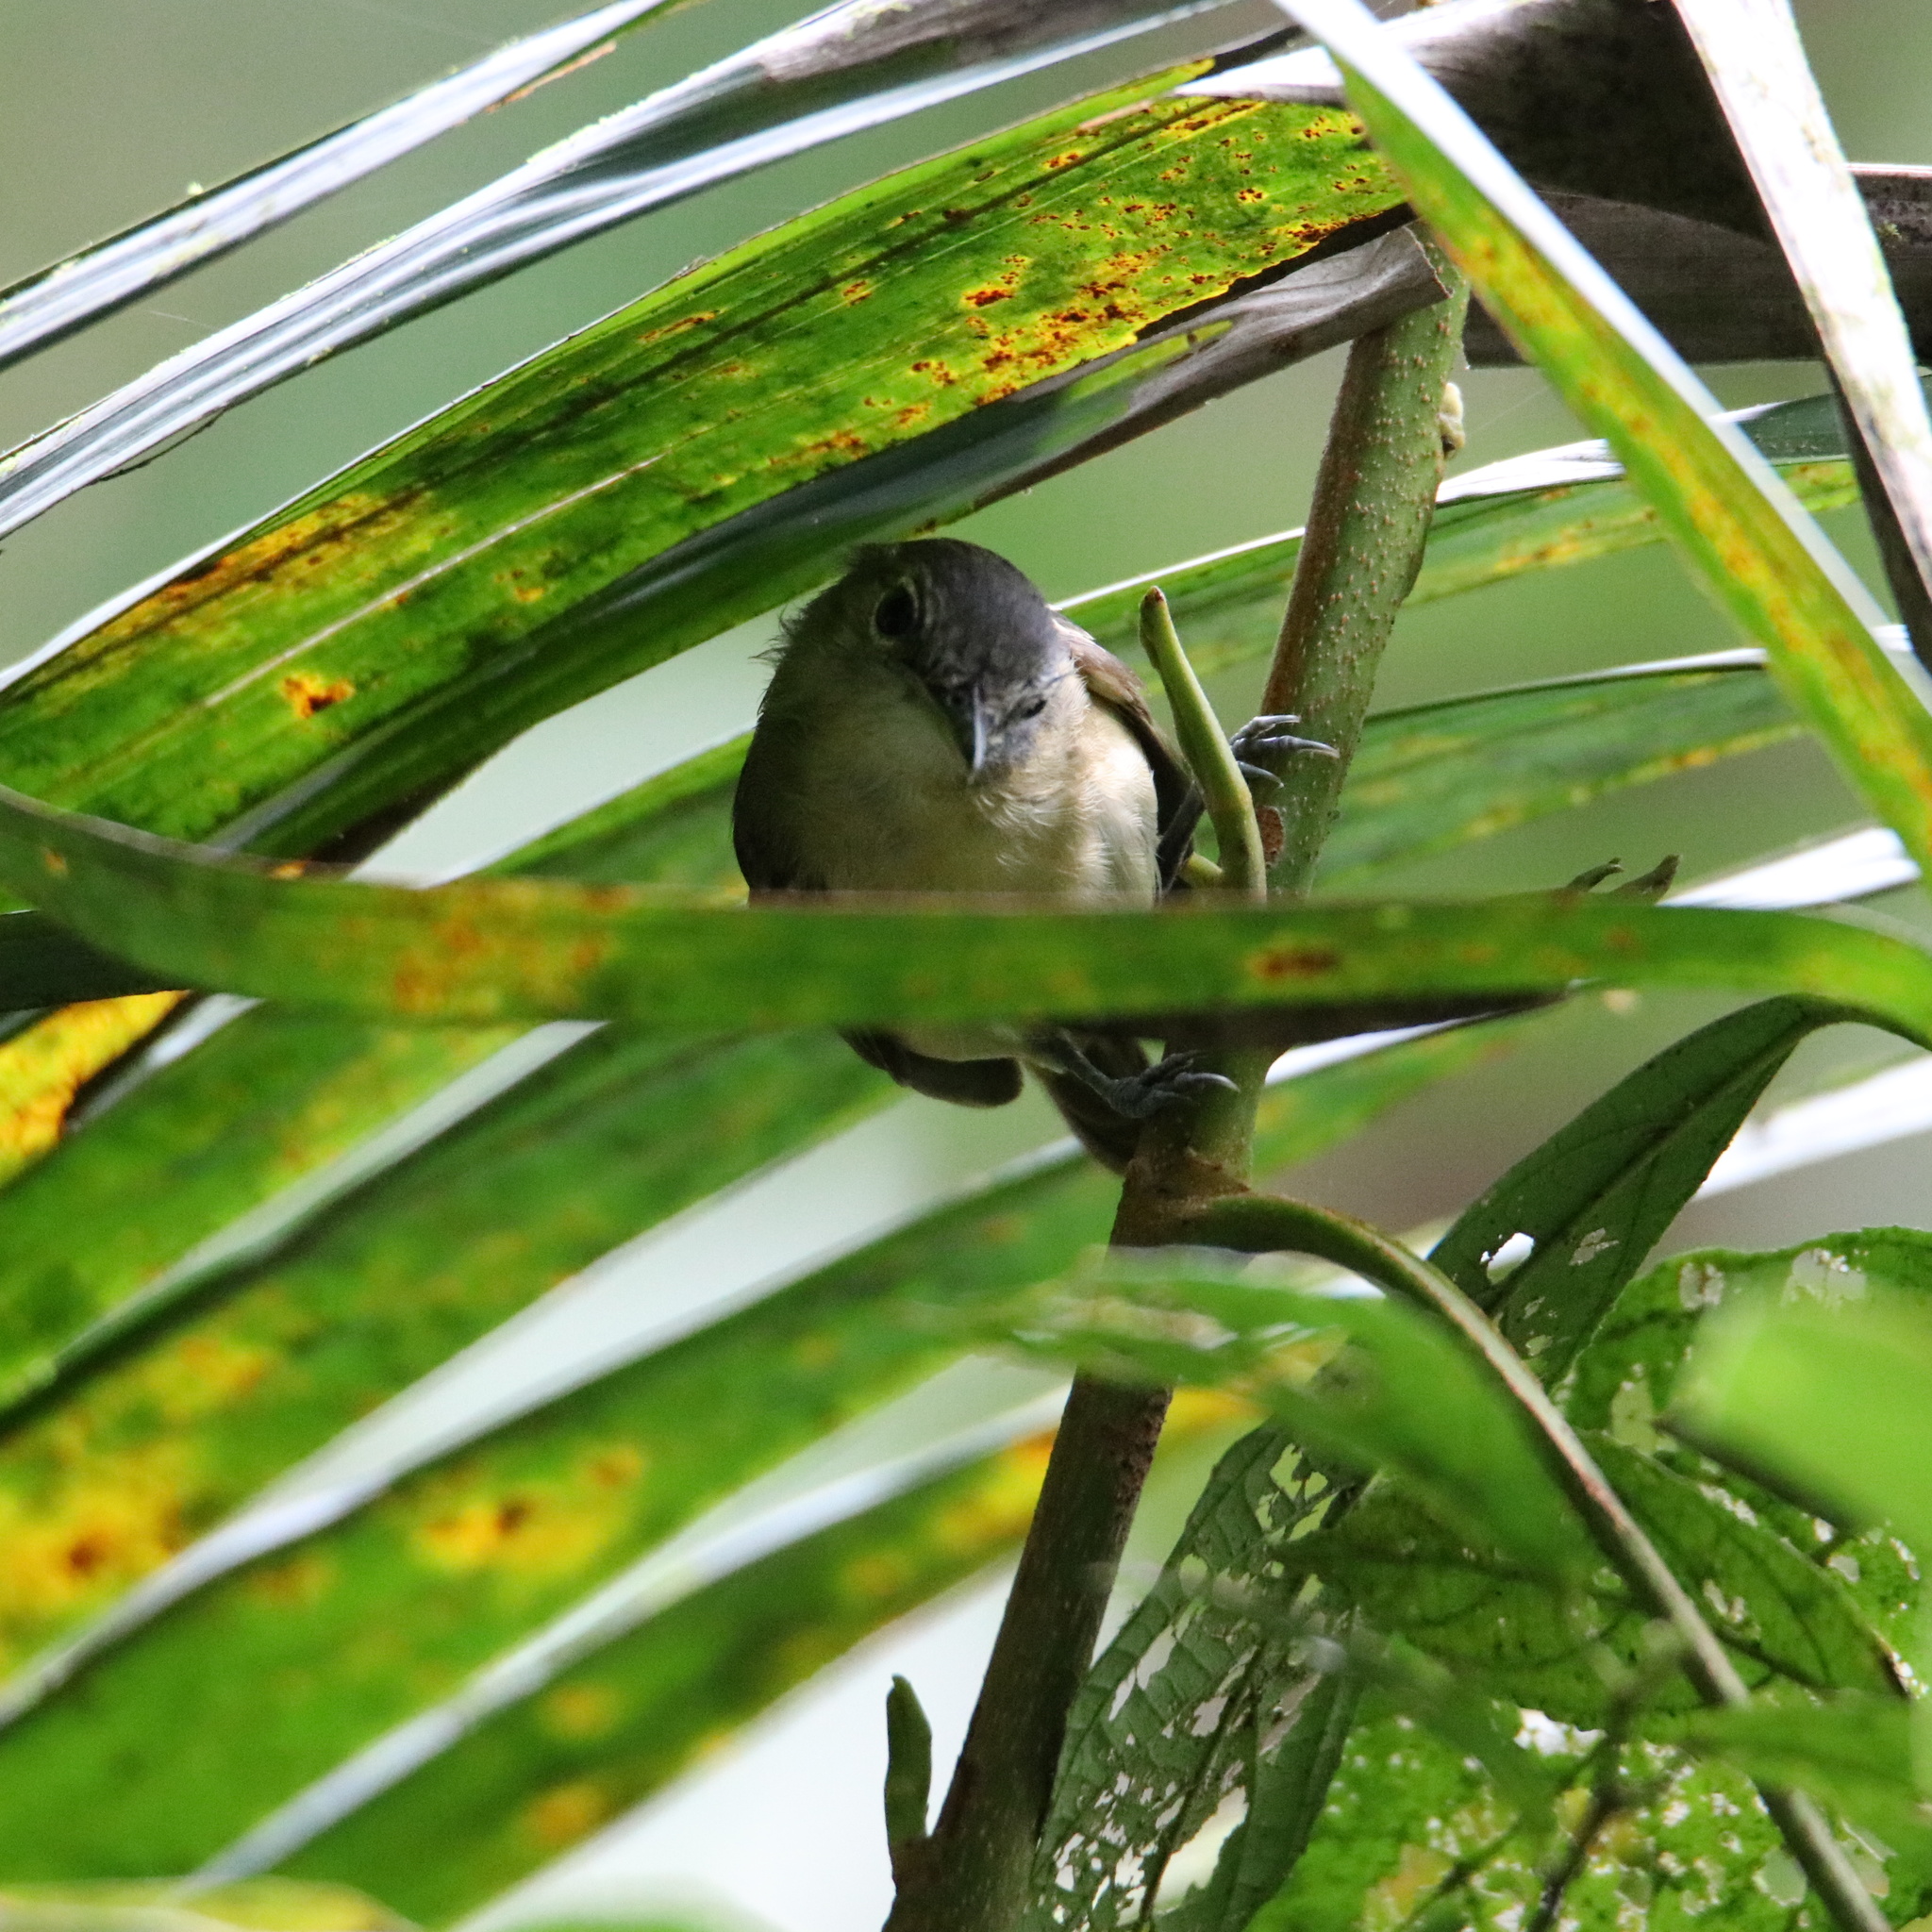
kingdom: Animalia
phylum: Chordata
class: Aves
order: Passeriformes
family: Thamnophilidae
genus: Myrmotherula
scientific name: Myrmotherula axillaris
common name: White-flanked antwren
